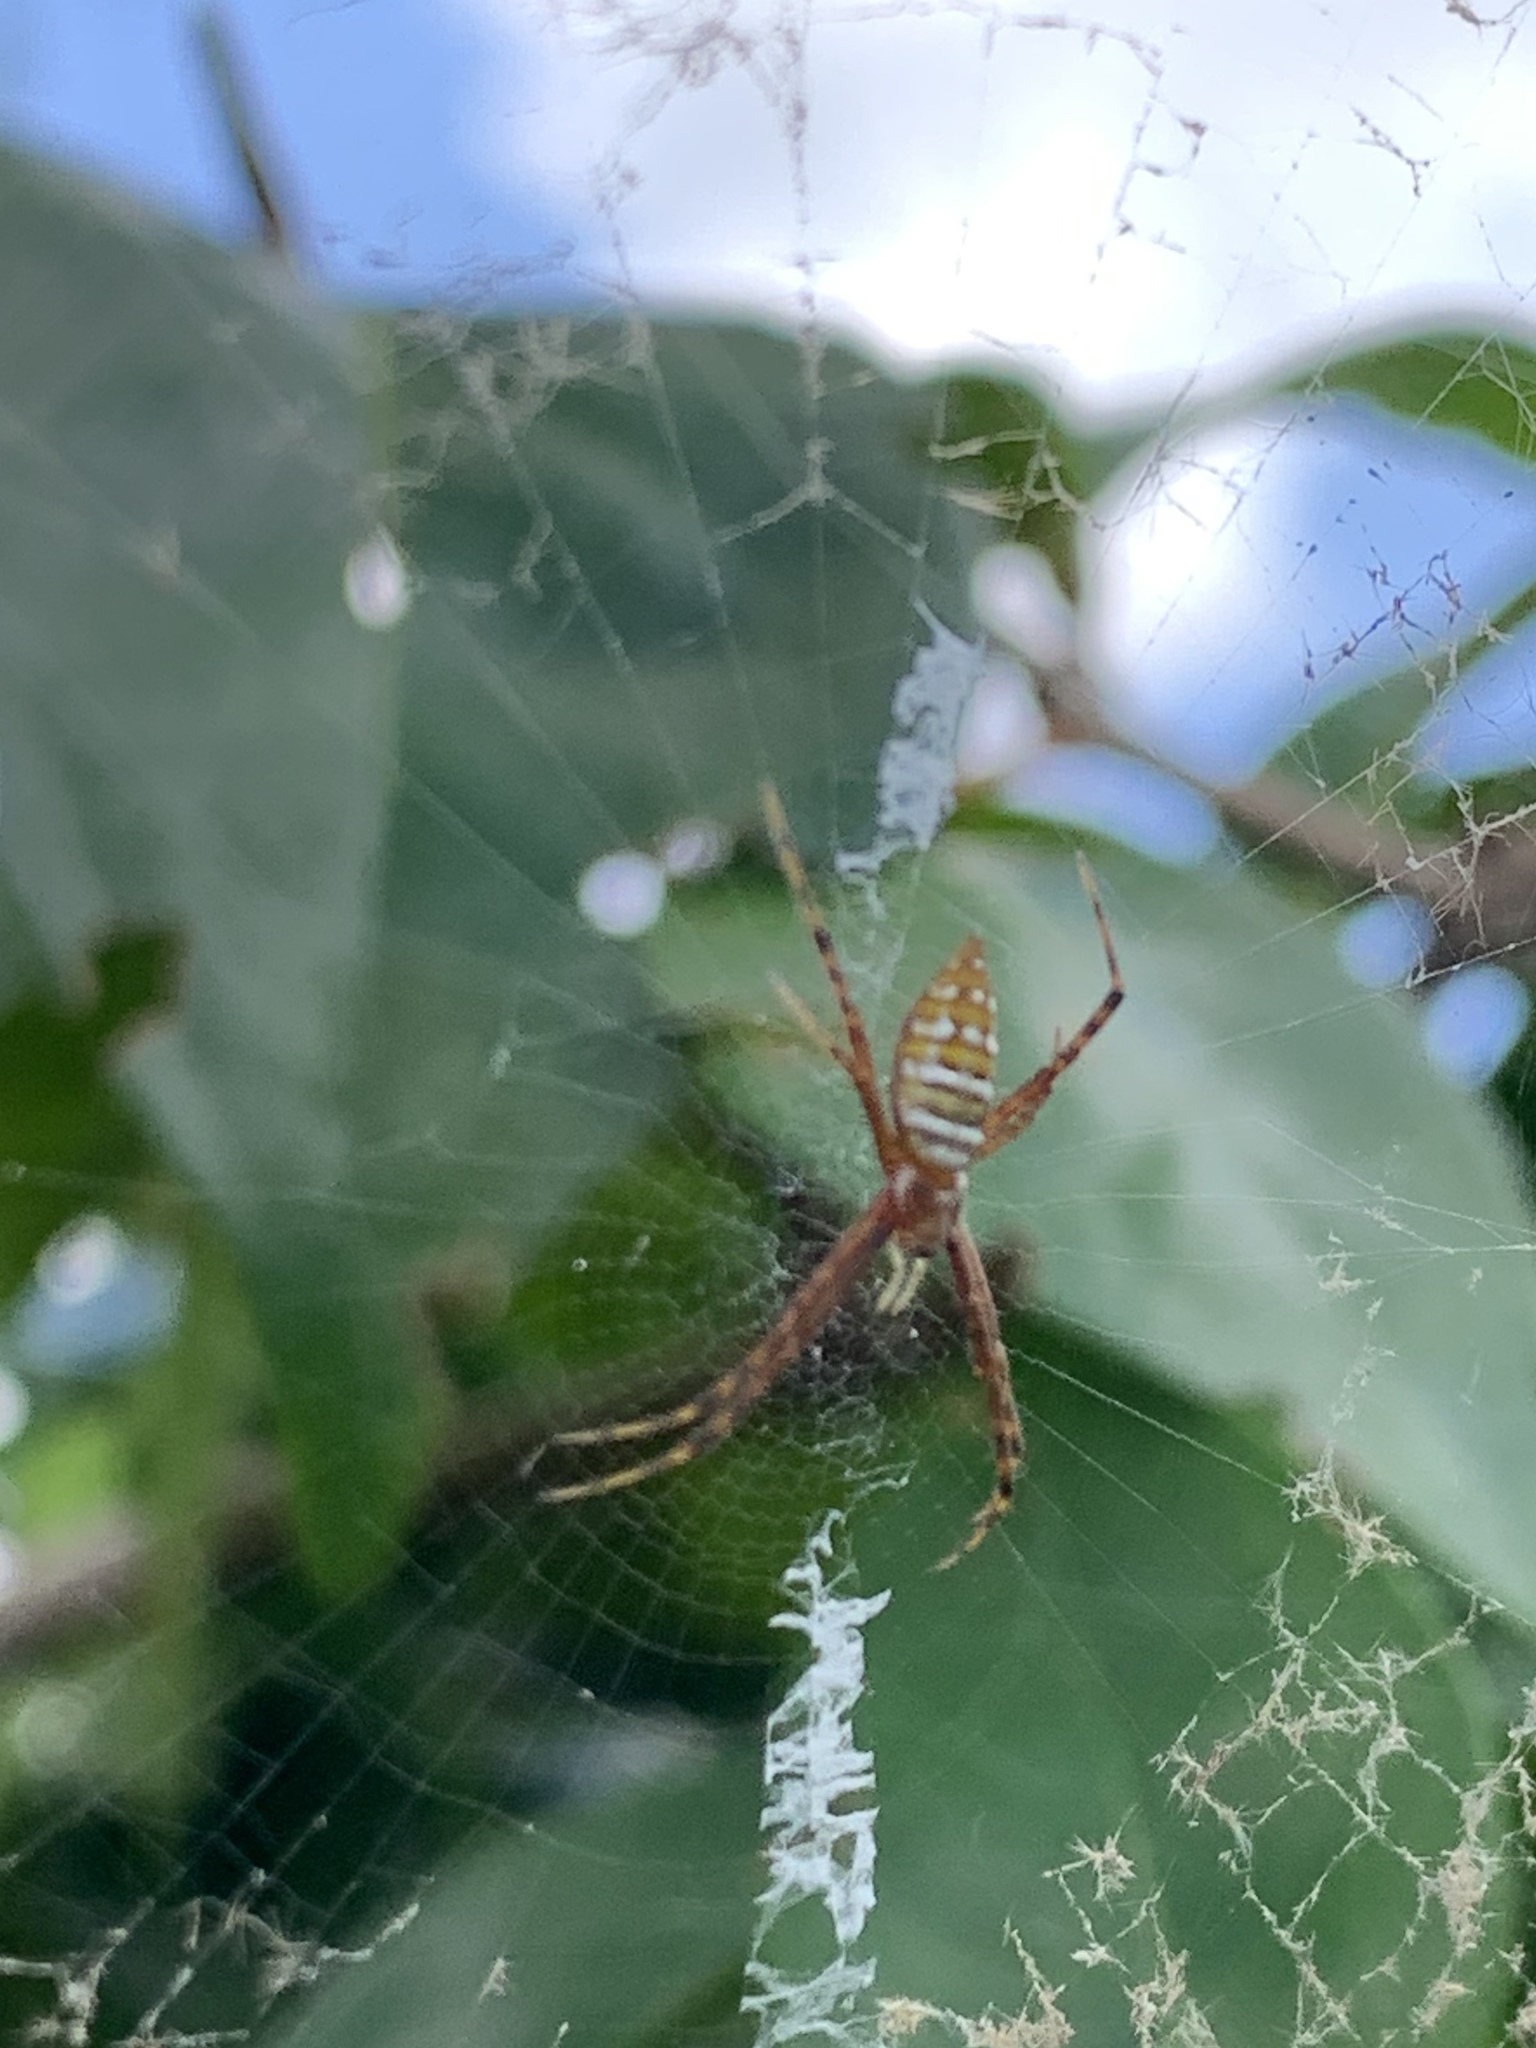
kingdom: Animalia
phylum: Arthropoda
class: Arachnida
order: Araneae
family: Araneidae
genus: Argiope
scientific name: Argiope trifasciata
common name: Banded garden spider
